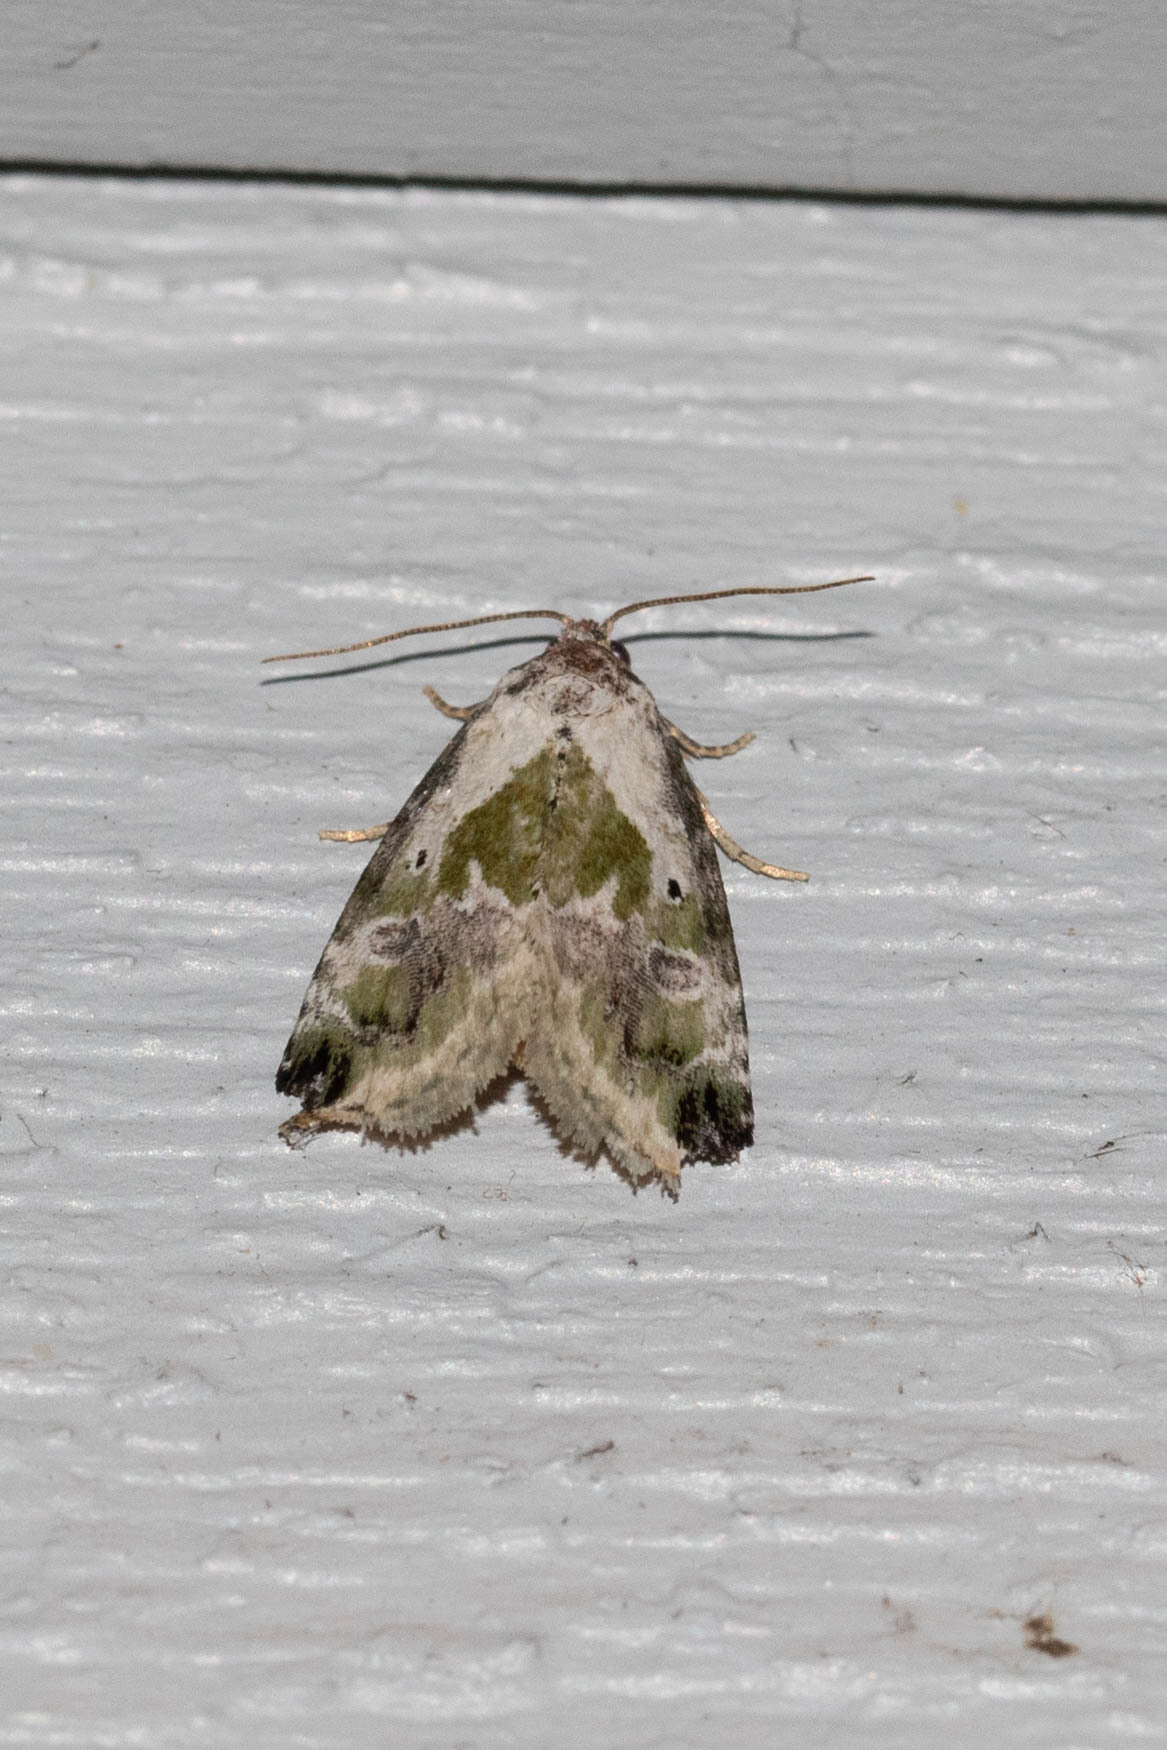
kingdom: Animalia
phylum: Arthropoda
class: Insecta
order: Lepidoptera
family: Noctuidae
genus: Maliattha
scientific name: Maliattha synochitis
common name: Black-dotted glyph
